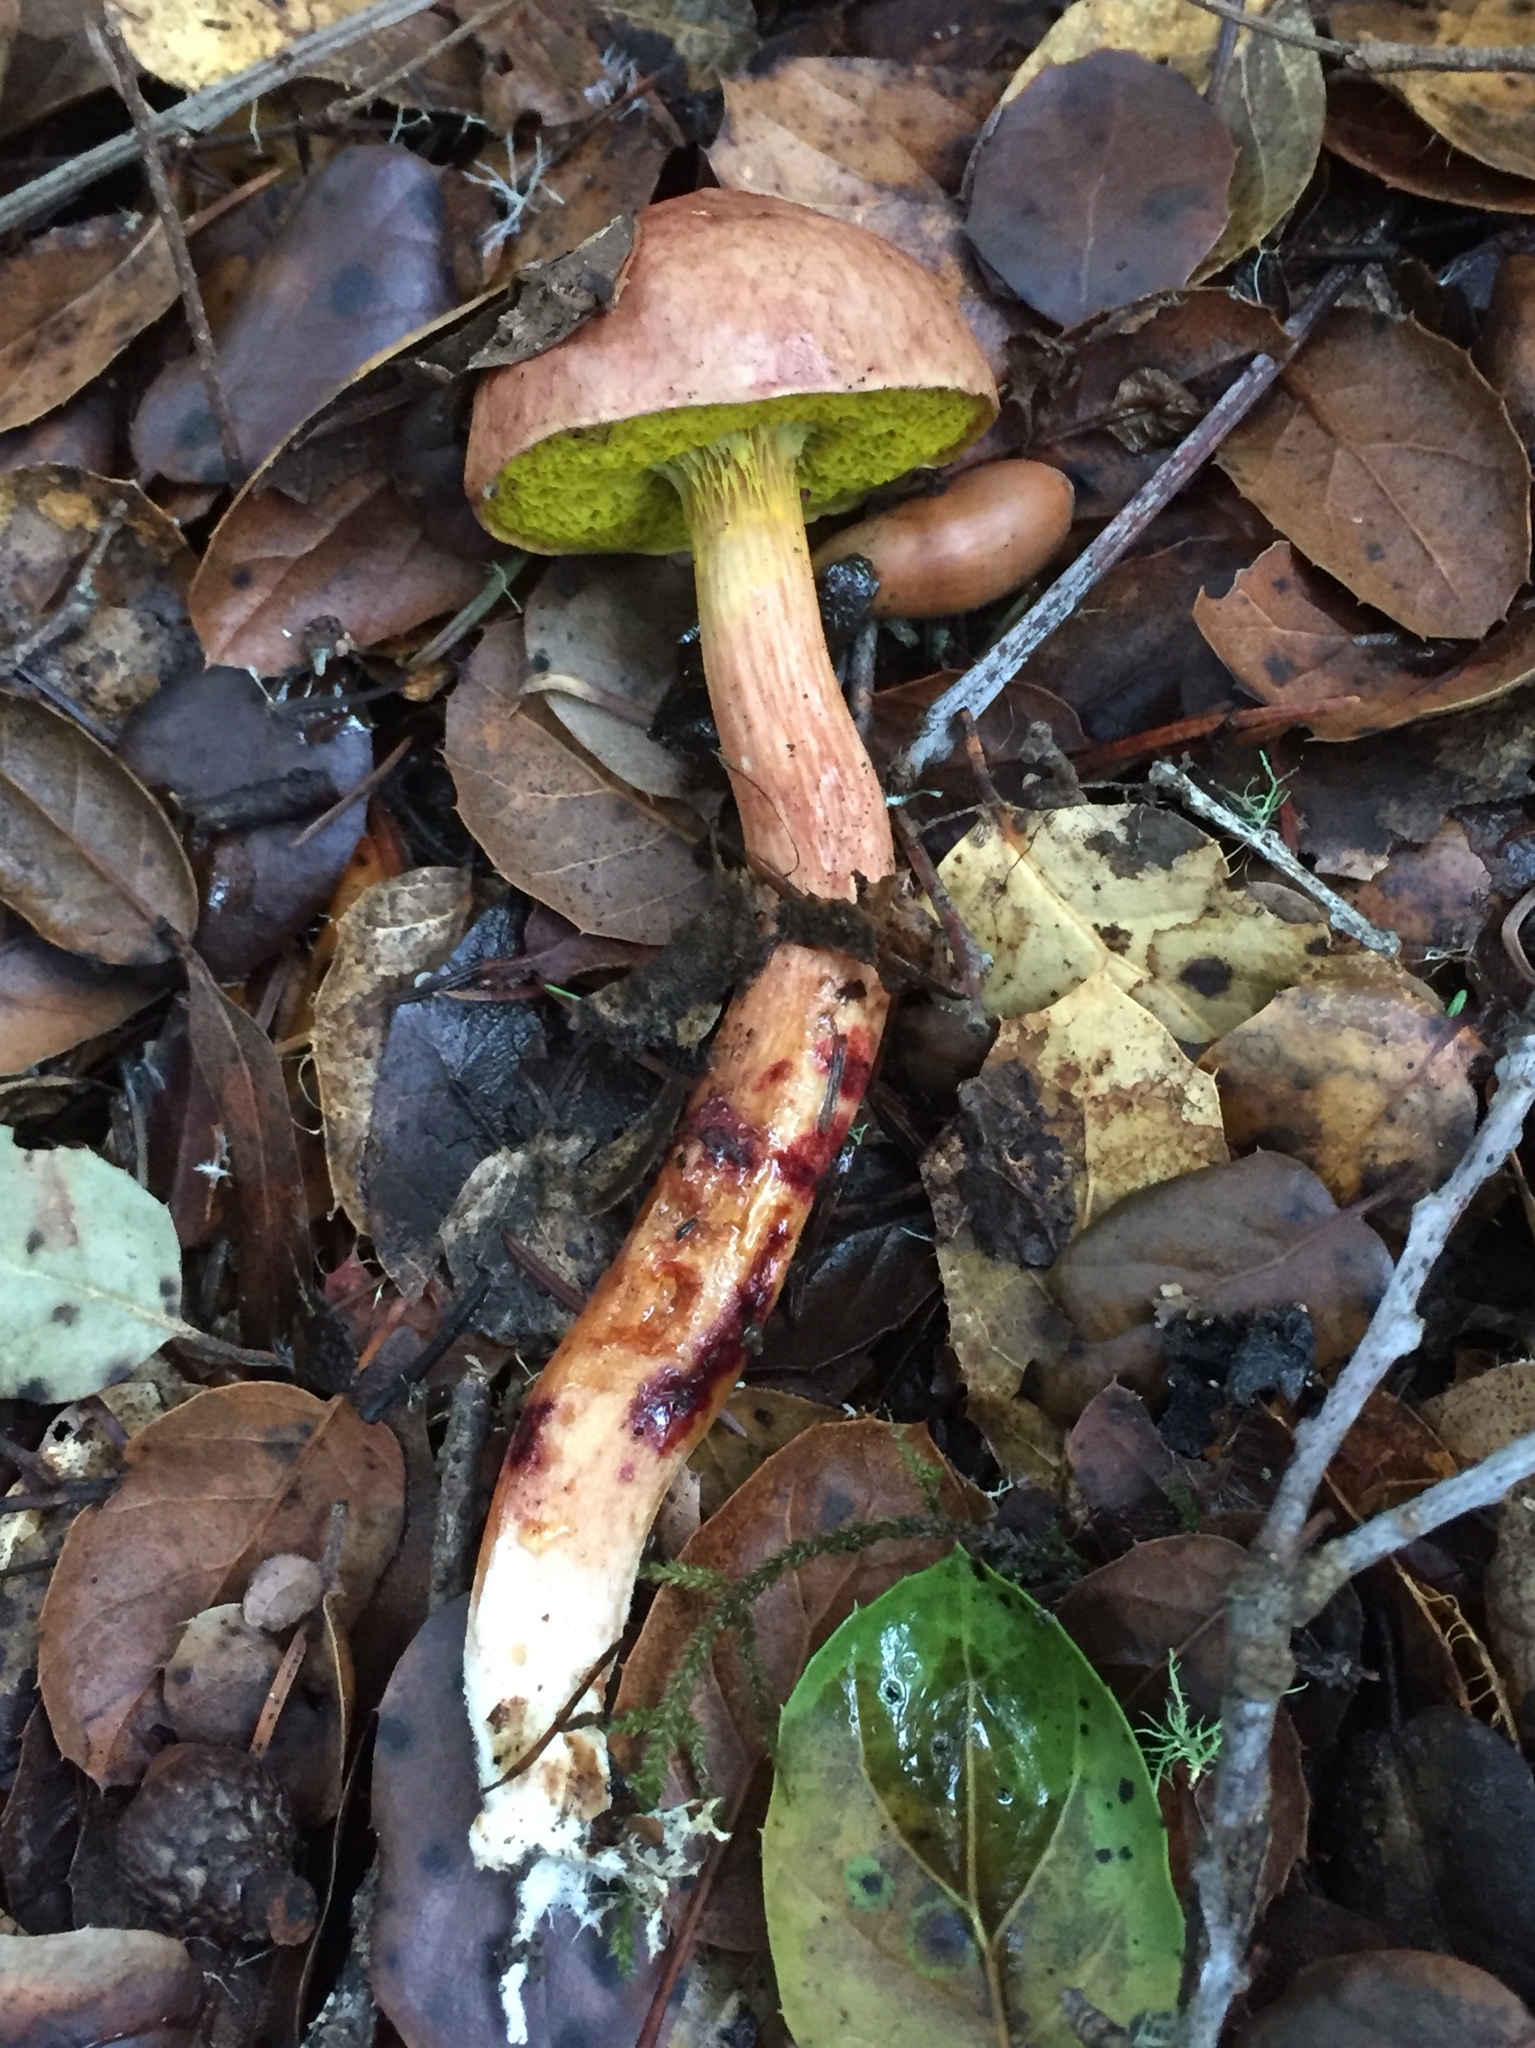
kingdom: Fungi
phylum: Basidiomycota
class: Agaricomycetes
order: Boletales
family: Boletaceae
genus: Aureoboletus
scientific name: Aureoboletus flaviporus
